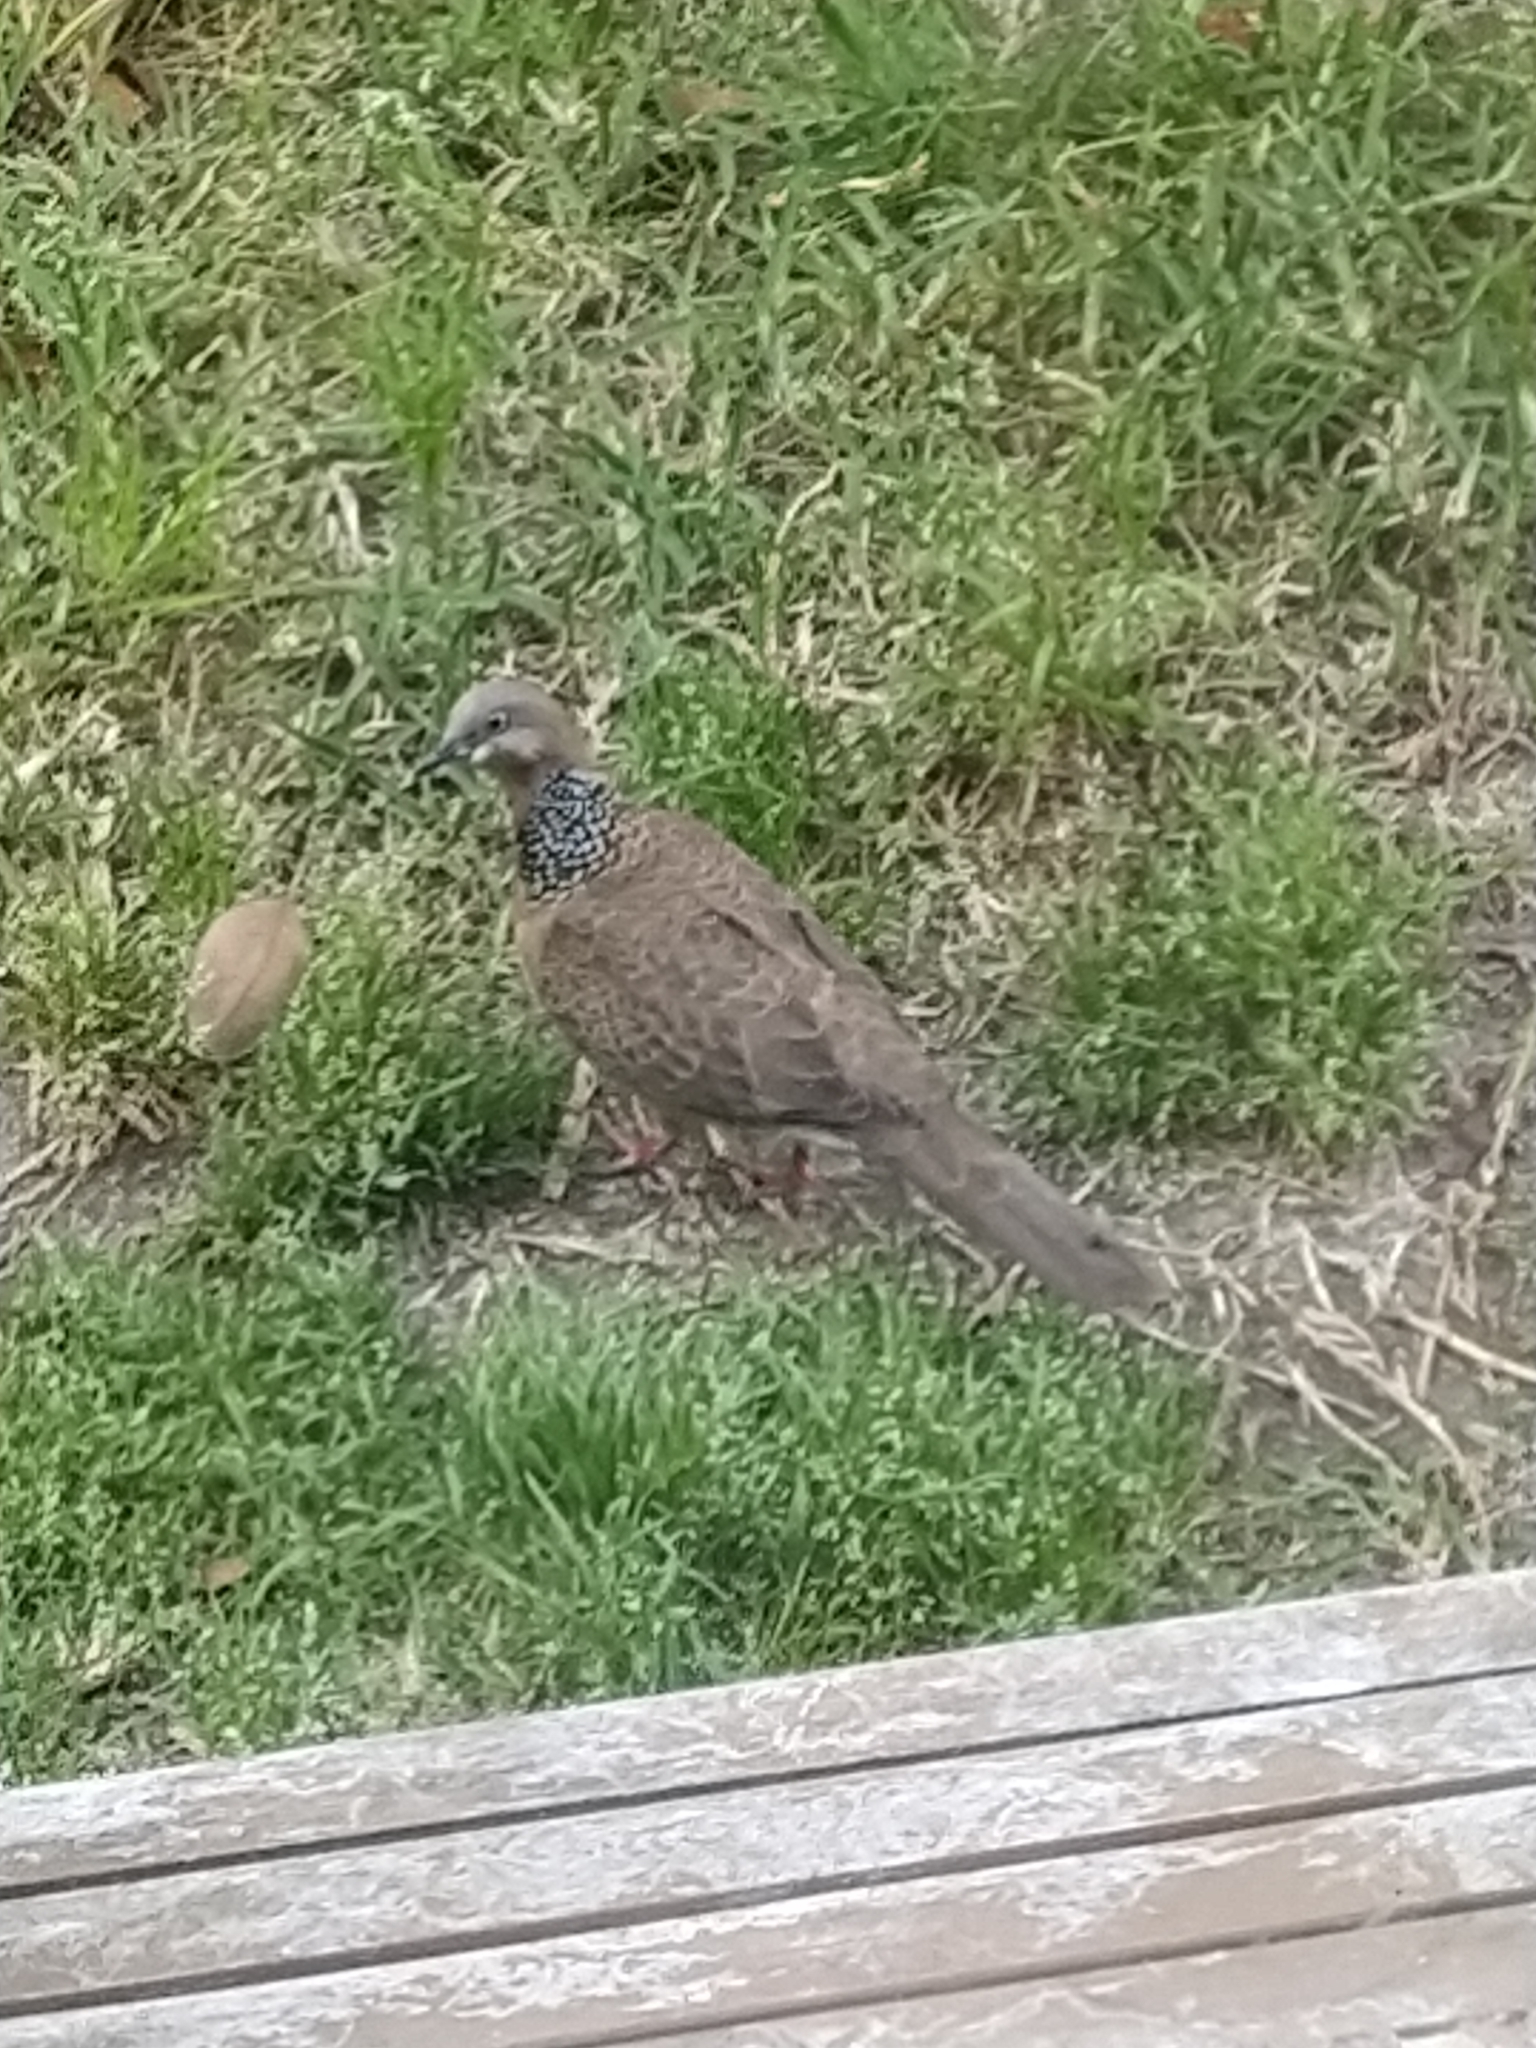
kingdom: Animalia
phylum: Chordata
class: Aves
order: Columbiformes
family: Columbidae
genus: Spilopelia
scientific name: Spilopelia chinensis
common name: Spotted dove
